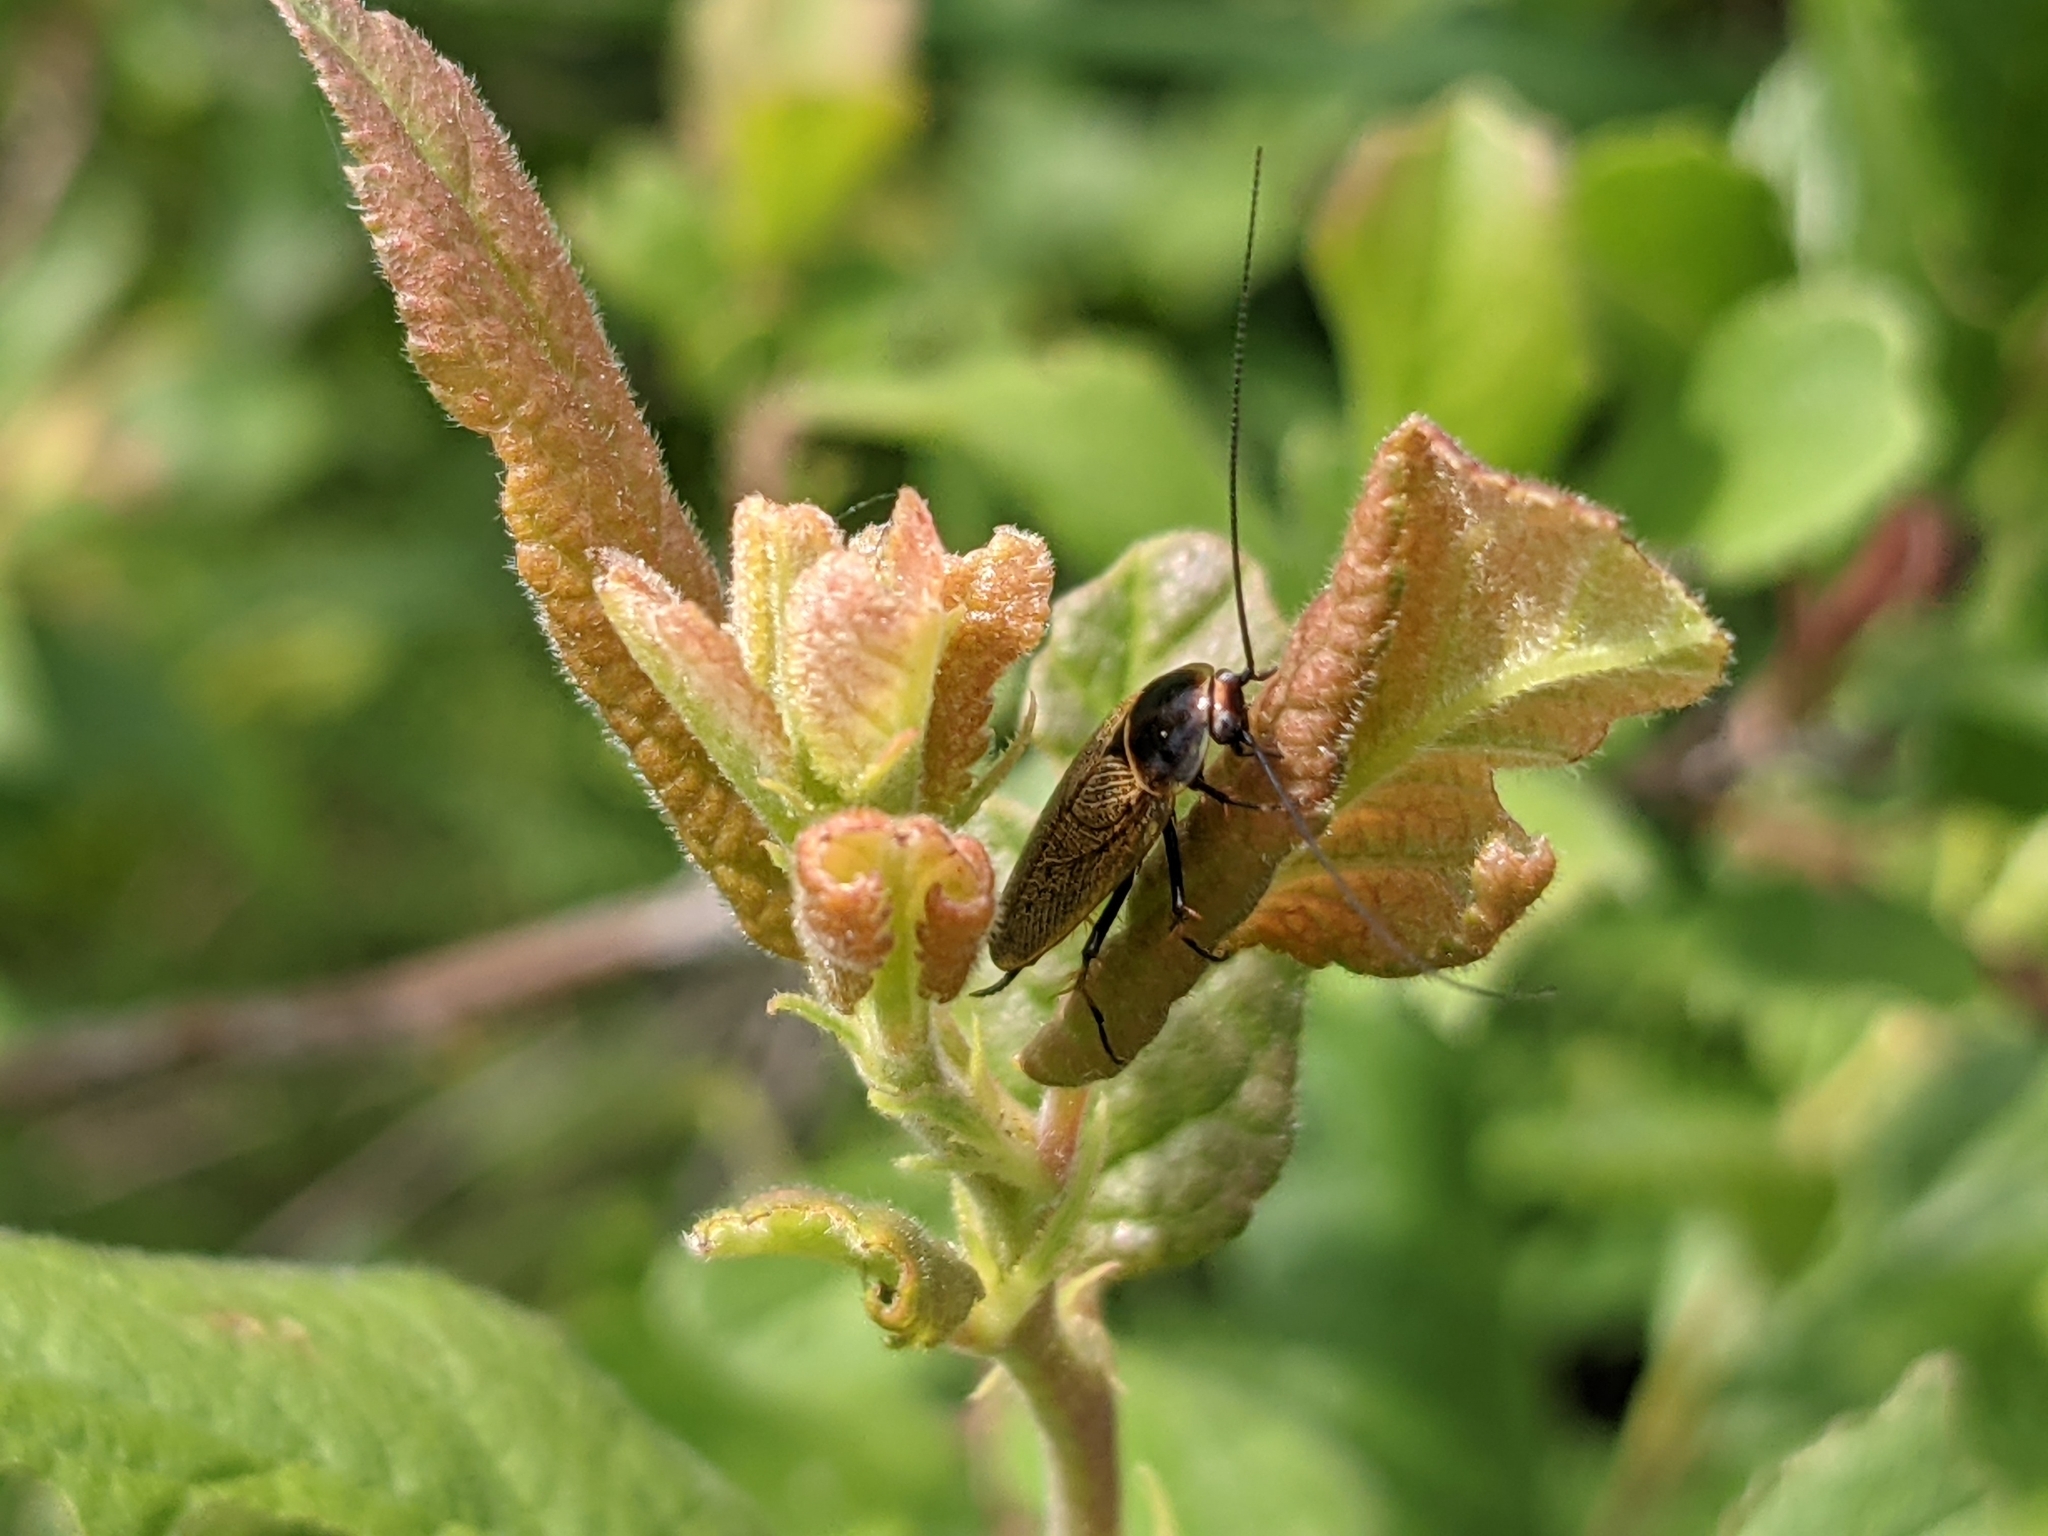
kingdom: Animalia
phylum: Arthropoda
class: Insecta
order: Blattodea
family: Ectobiidae
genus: Ectobius
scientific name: Ectobius erythronotus
